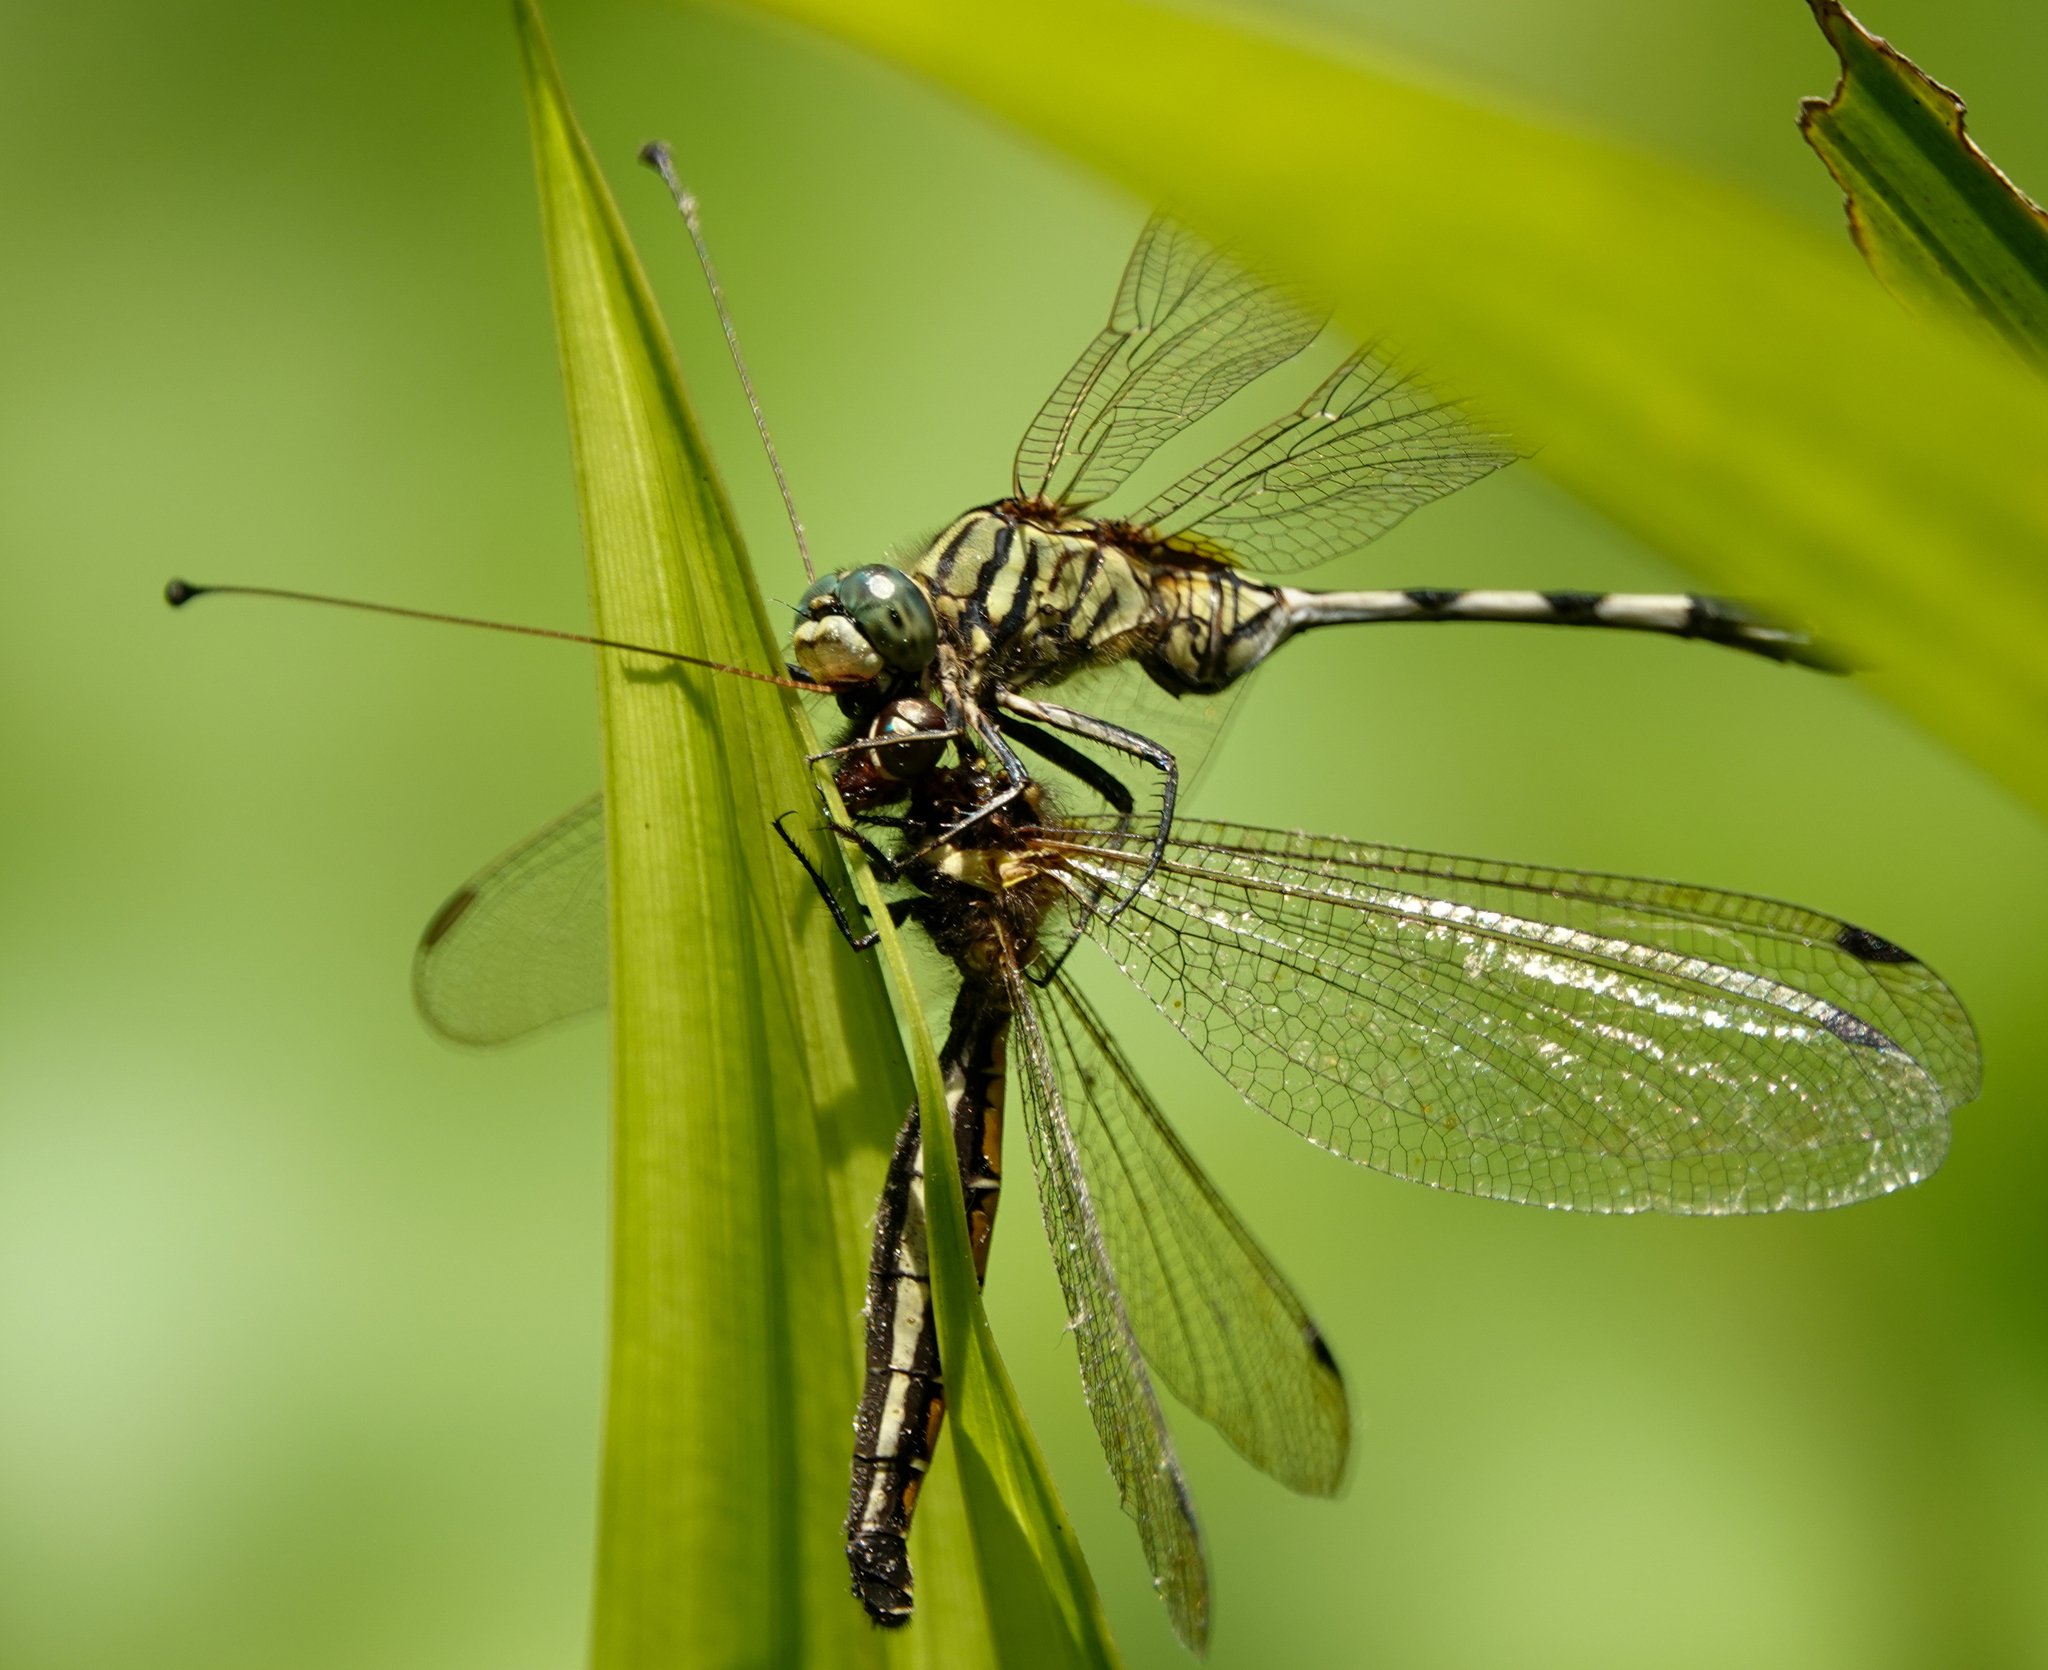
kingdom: Animalia
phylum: Arthropoda
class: Insecta
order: Odonata
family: Libellulidae
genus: Orthetrum
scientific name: Orthetrum sabina
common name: Slender skimmer
